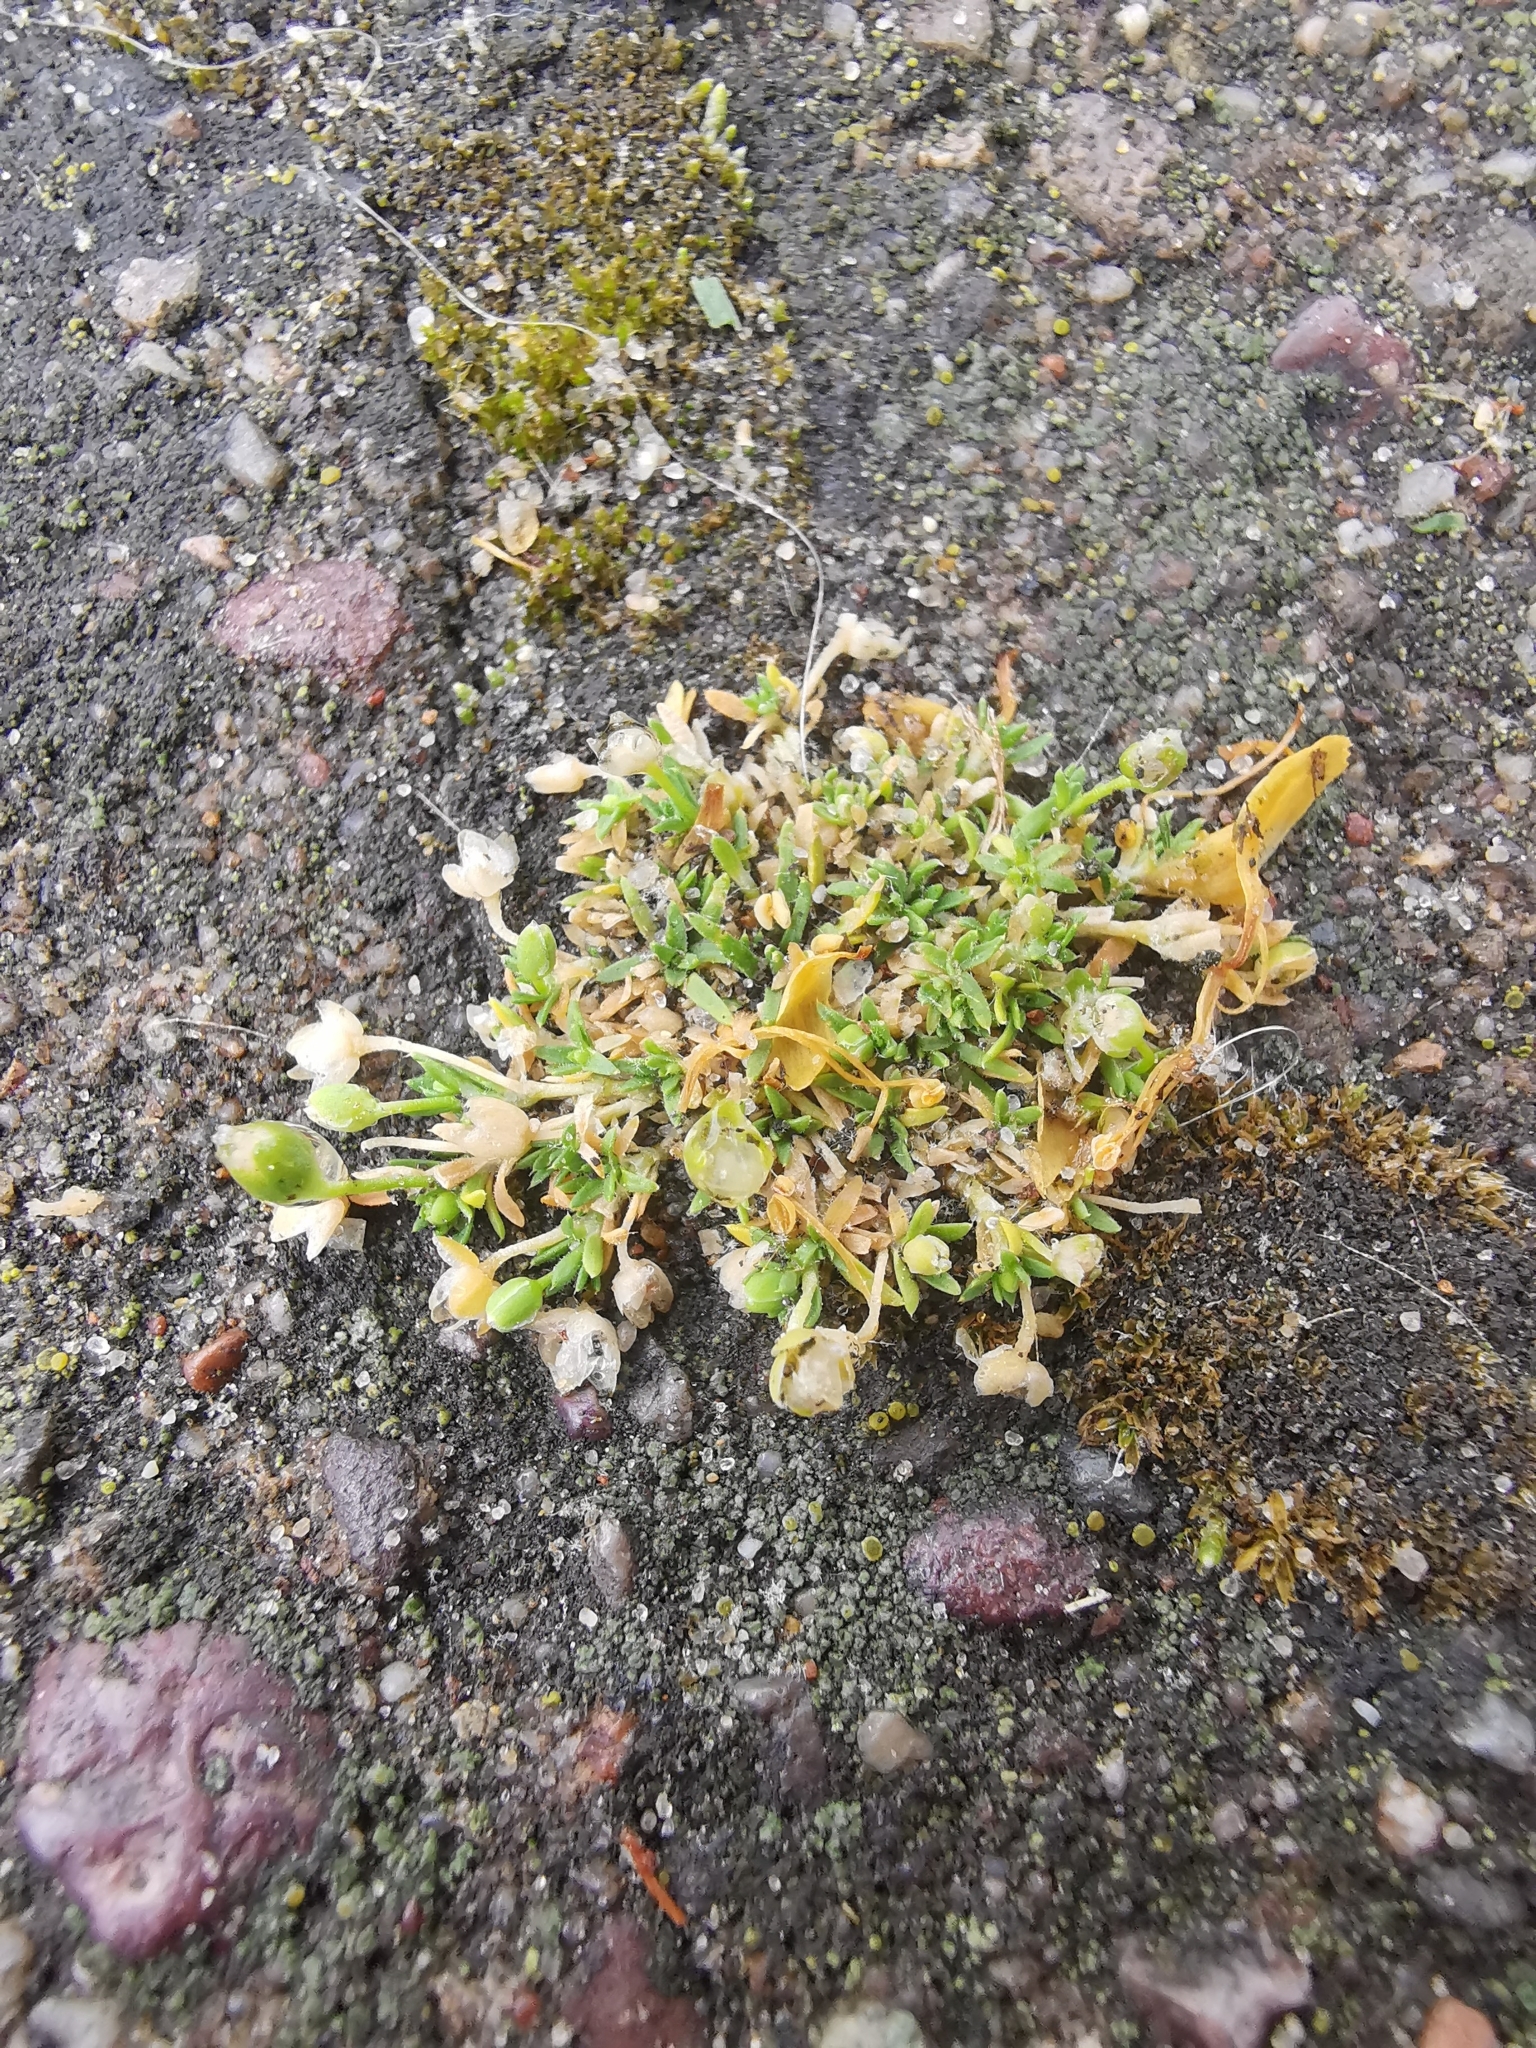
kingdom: Plantae
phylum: Tracheophyta
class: Magnoliopsida
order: Caryophyllales
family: Caryophyllaceae
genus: Sagina
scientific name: Sagina procumbens
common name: Procumbent pearlwort
